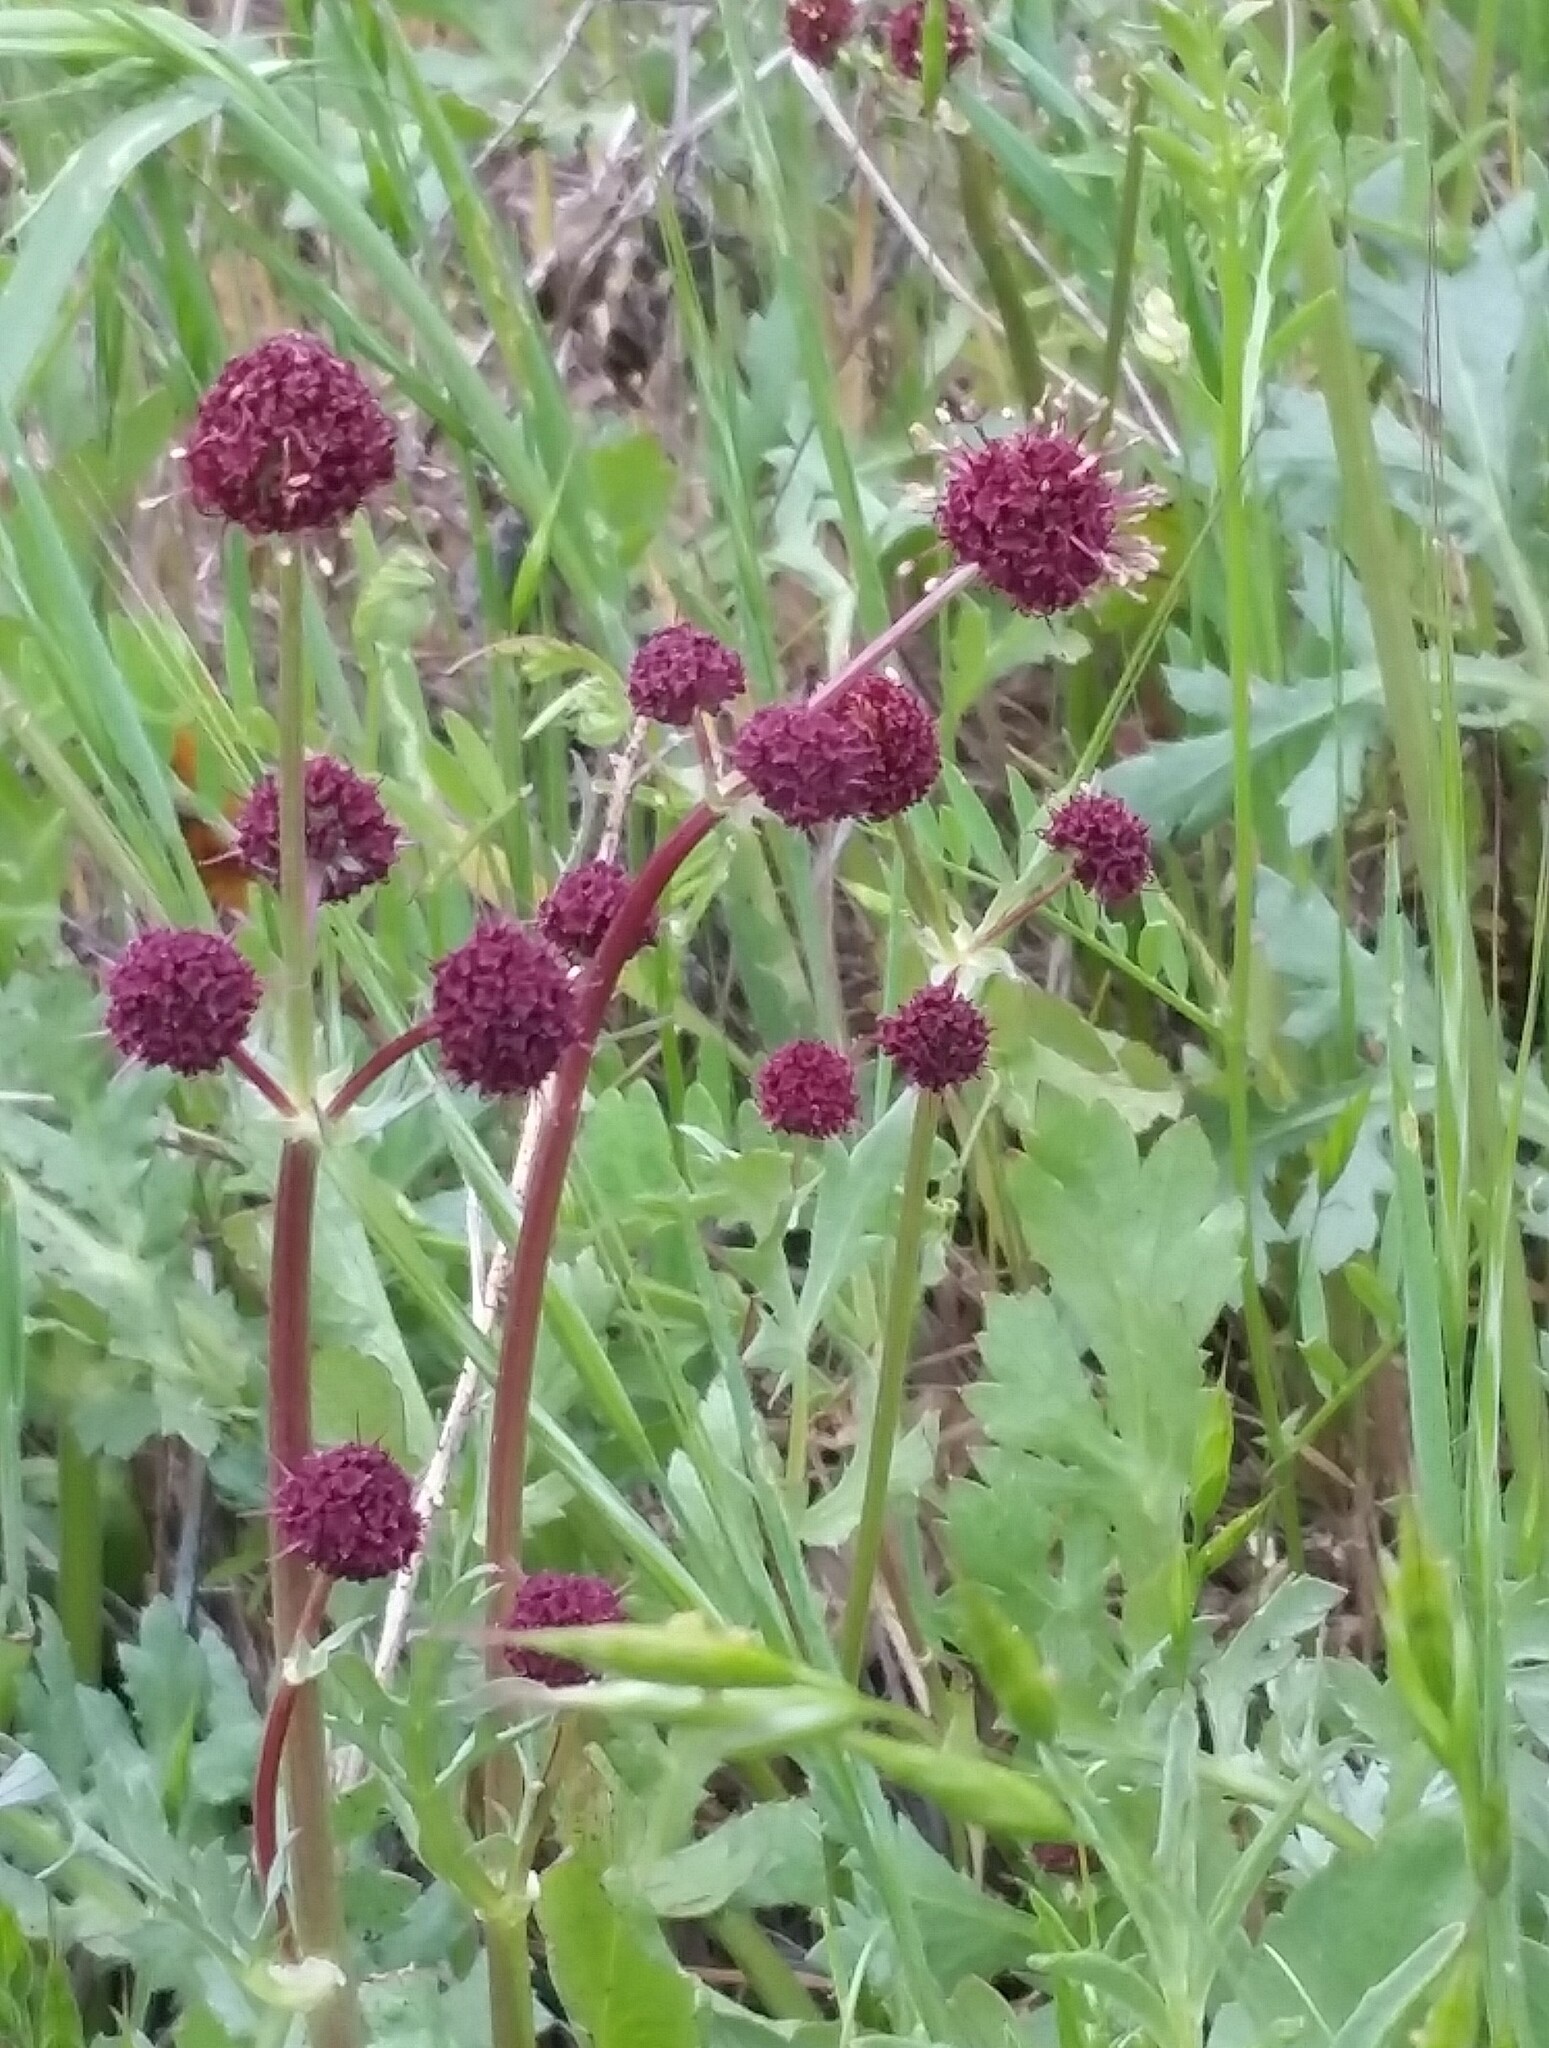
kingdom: Plantae
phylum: Tracheophyta
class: Magnoliopsida
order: Apiales
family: Apiaceae
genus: Sanicula
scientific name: Sanicula bipinnatifida
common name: Shoe-buttons
